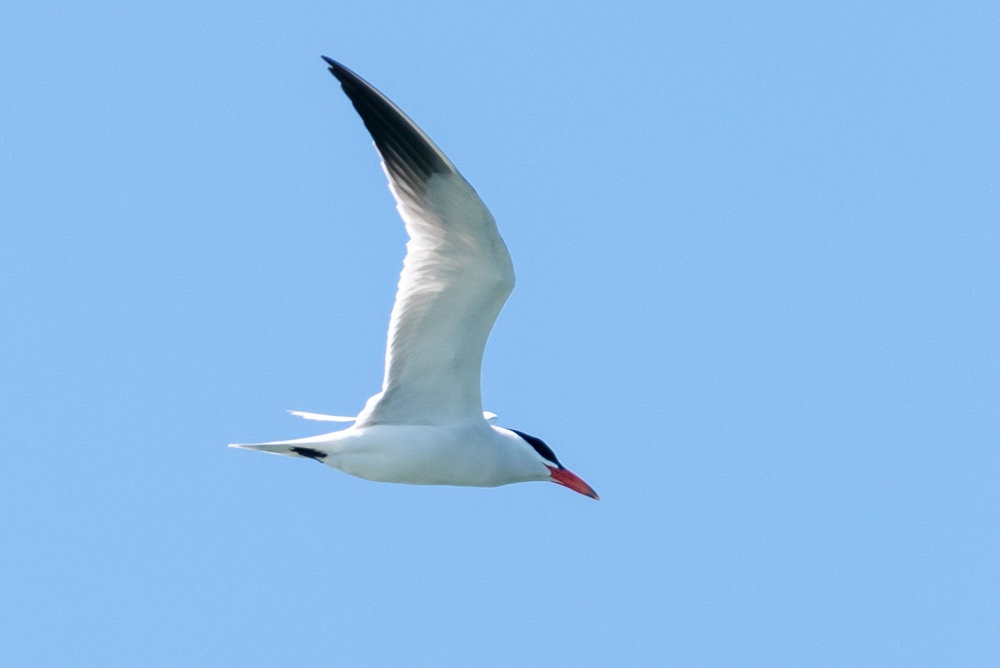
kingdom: Animalia
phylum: Chordata
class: Aves
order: Charadriiformes
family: Laridae
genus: Hydroprogne
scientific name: Hydroprogne caspia
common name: Caspian tern
